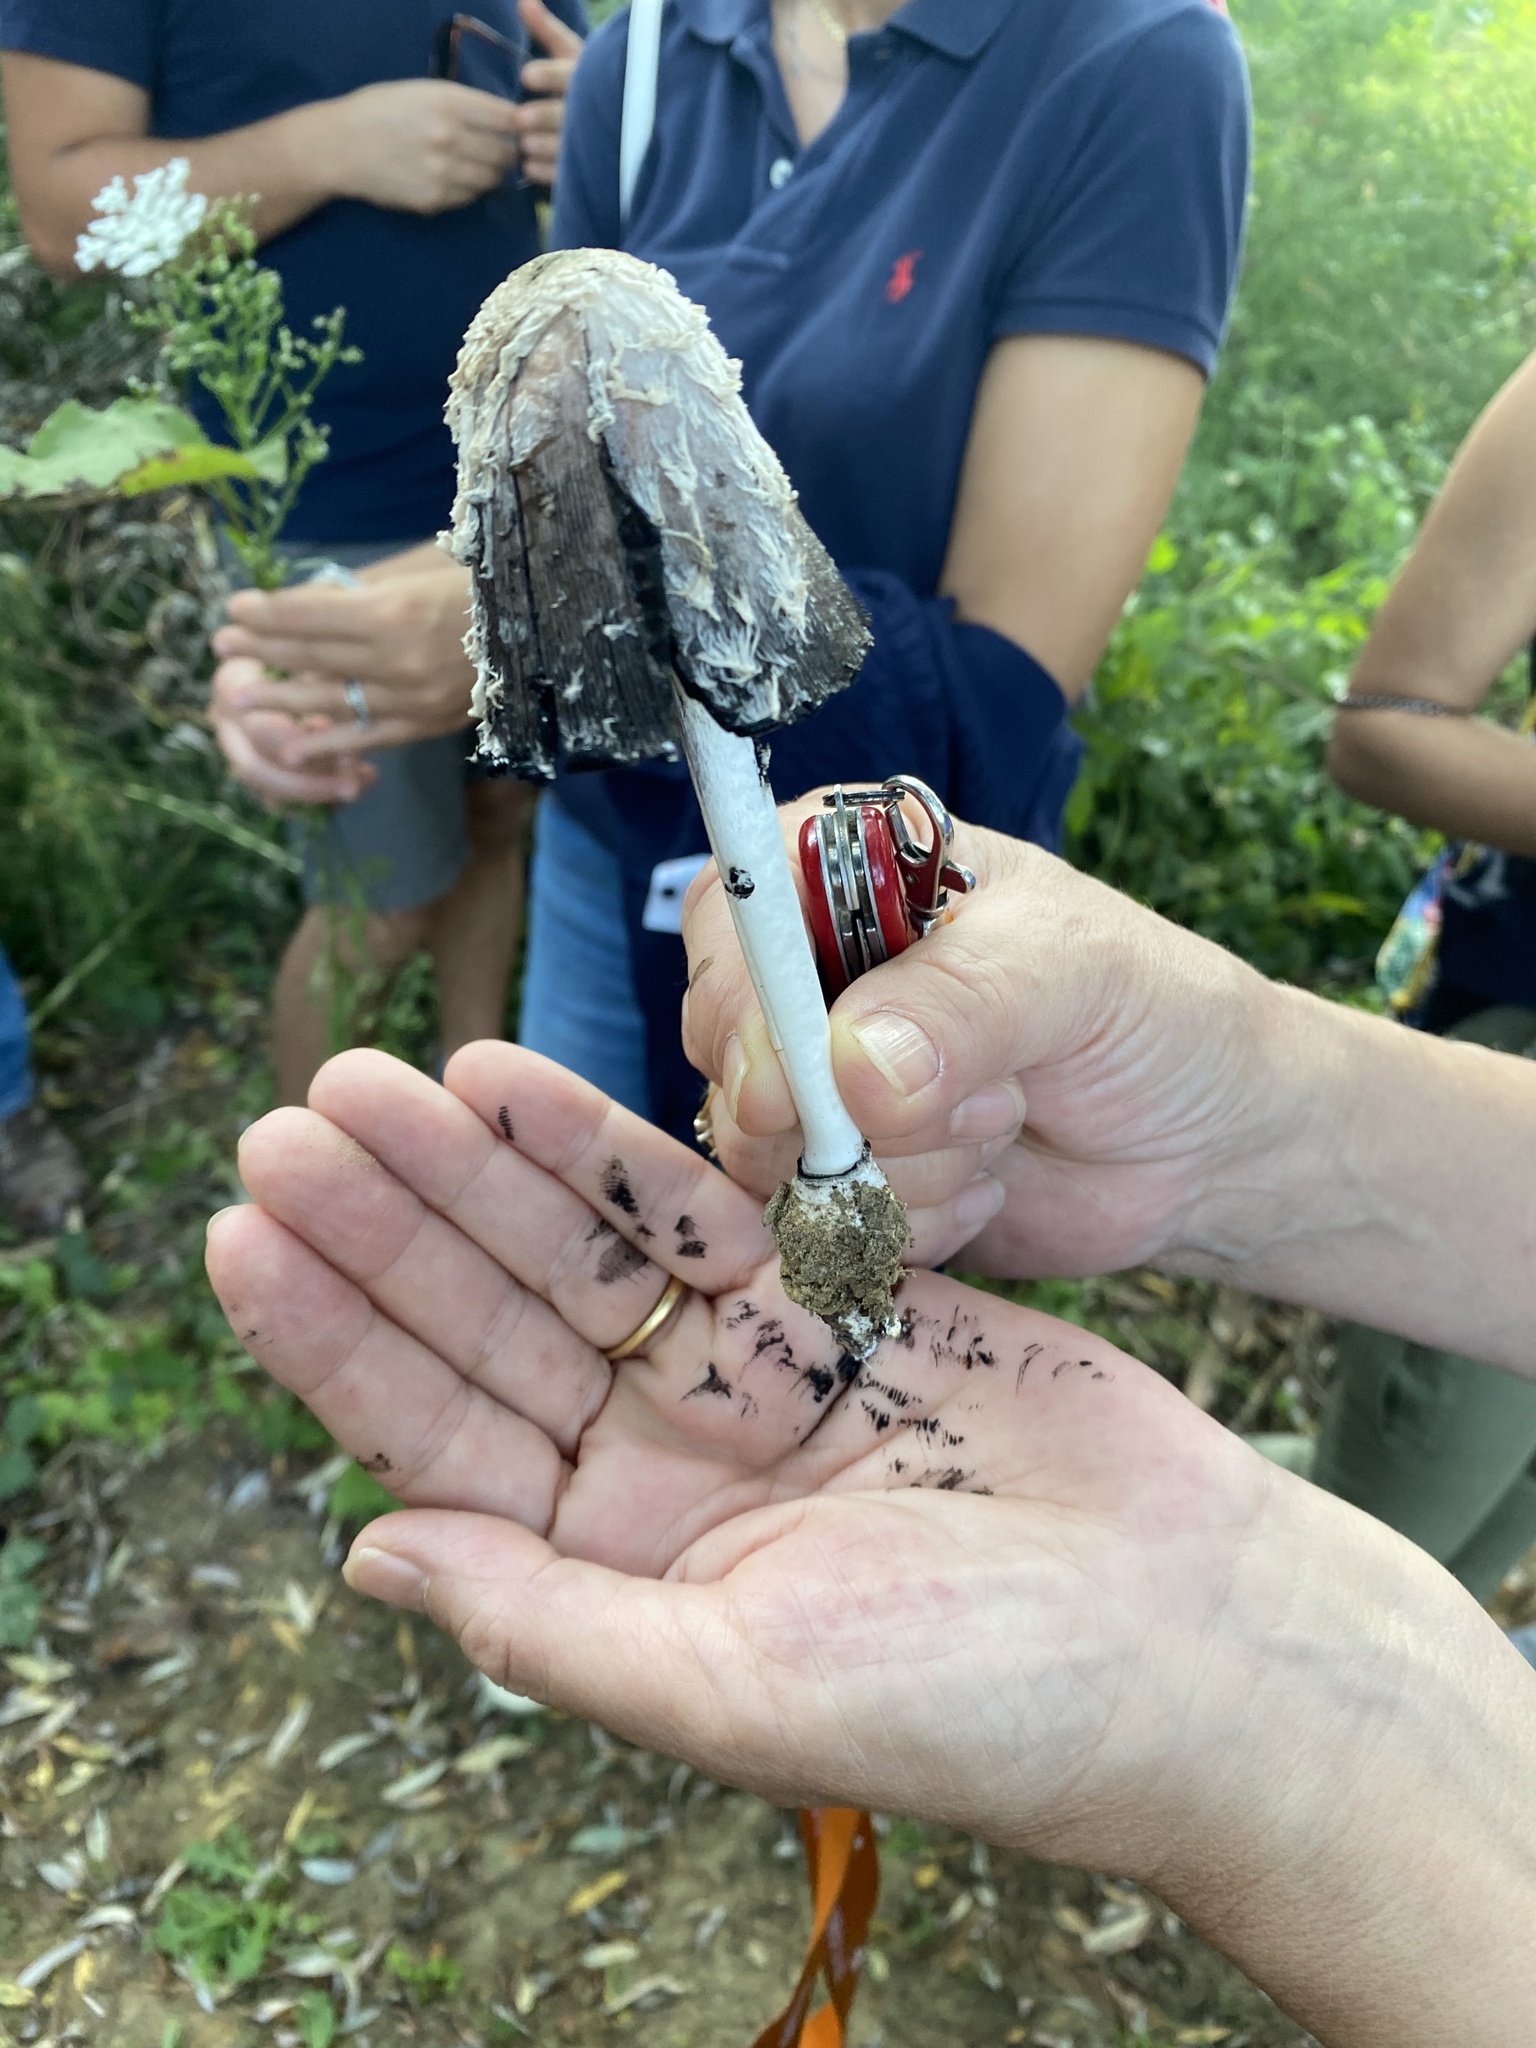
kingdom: Fungi
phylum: Basidiomycota
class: Agaricomycetes
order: Agaricales
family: Agaricaceae
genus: Coprinus
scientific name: Coprinus comatus
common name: Lawyer's wig
